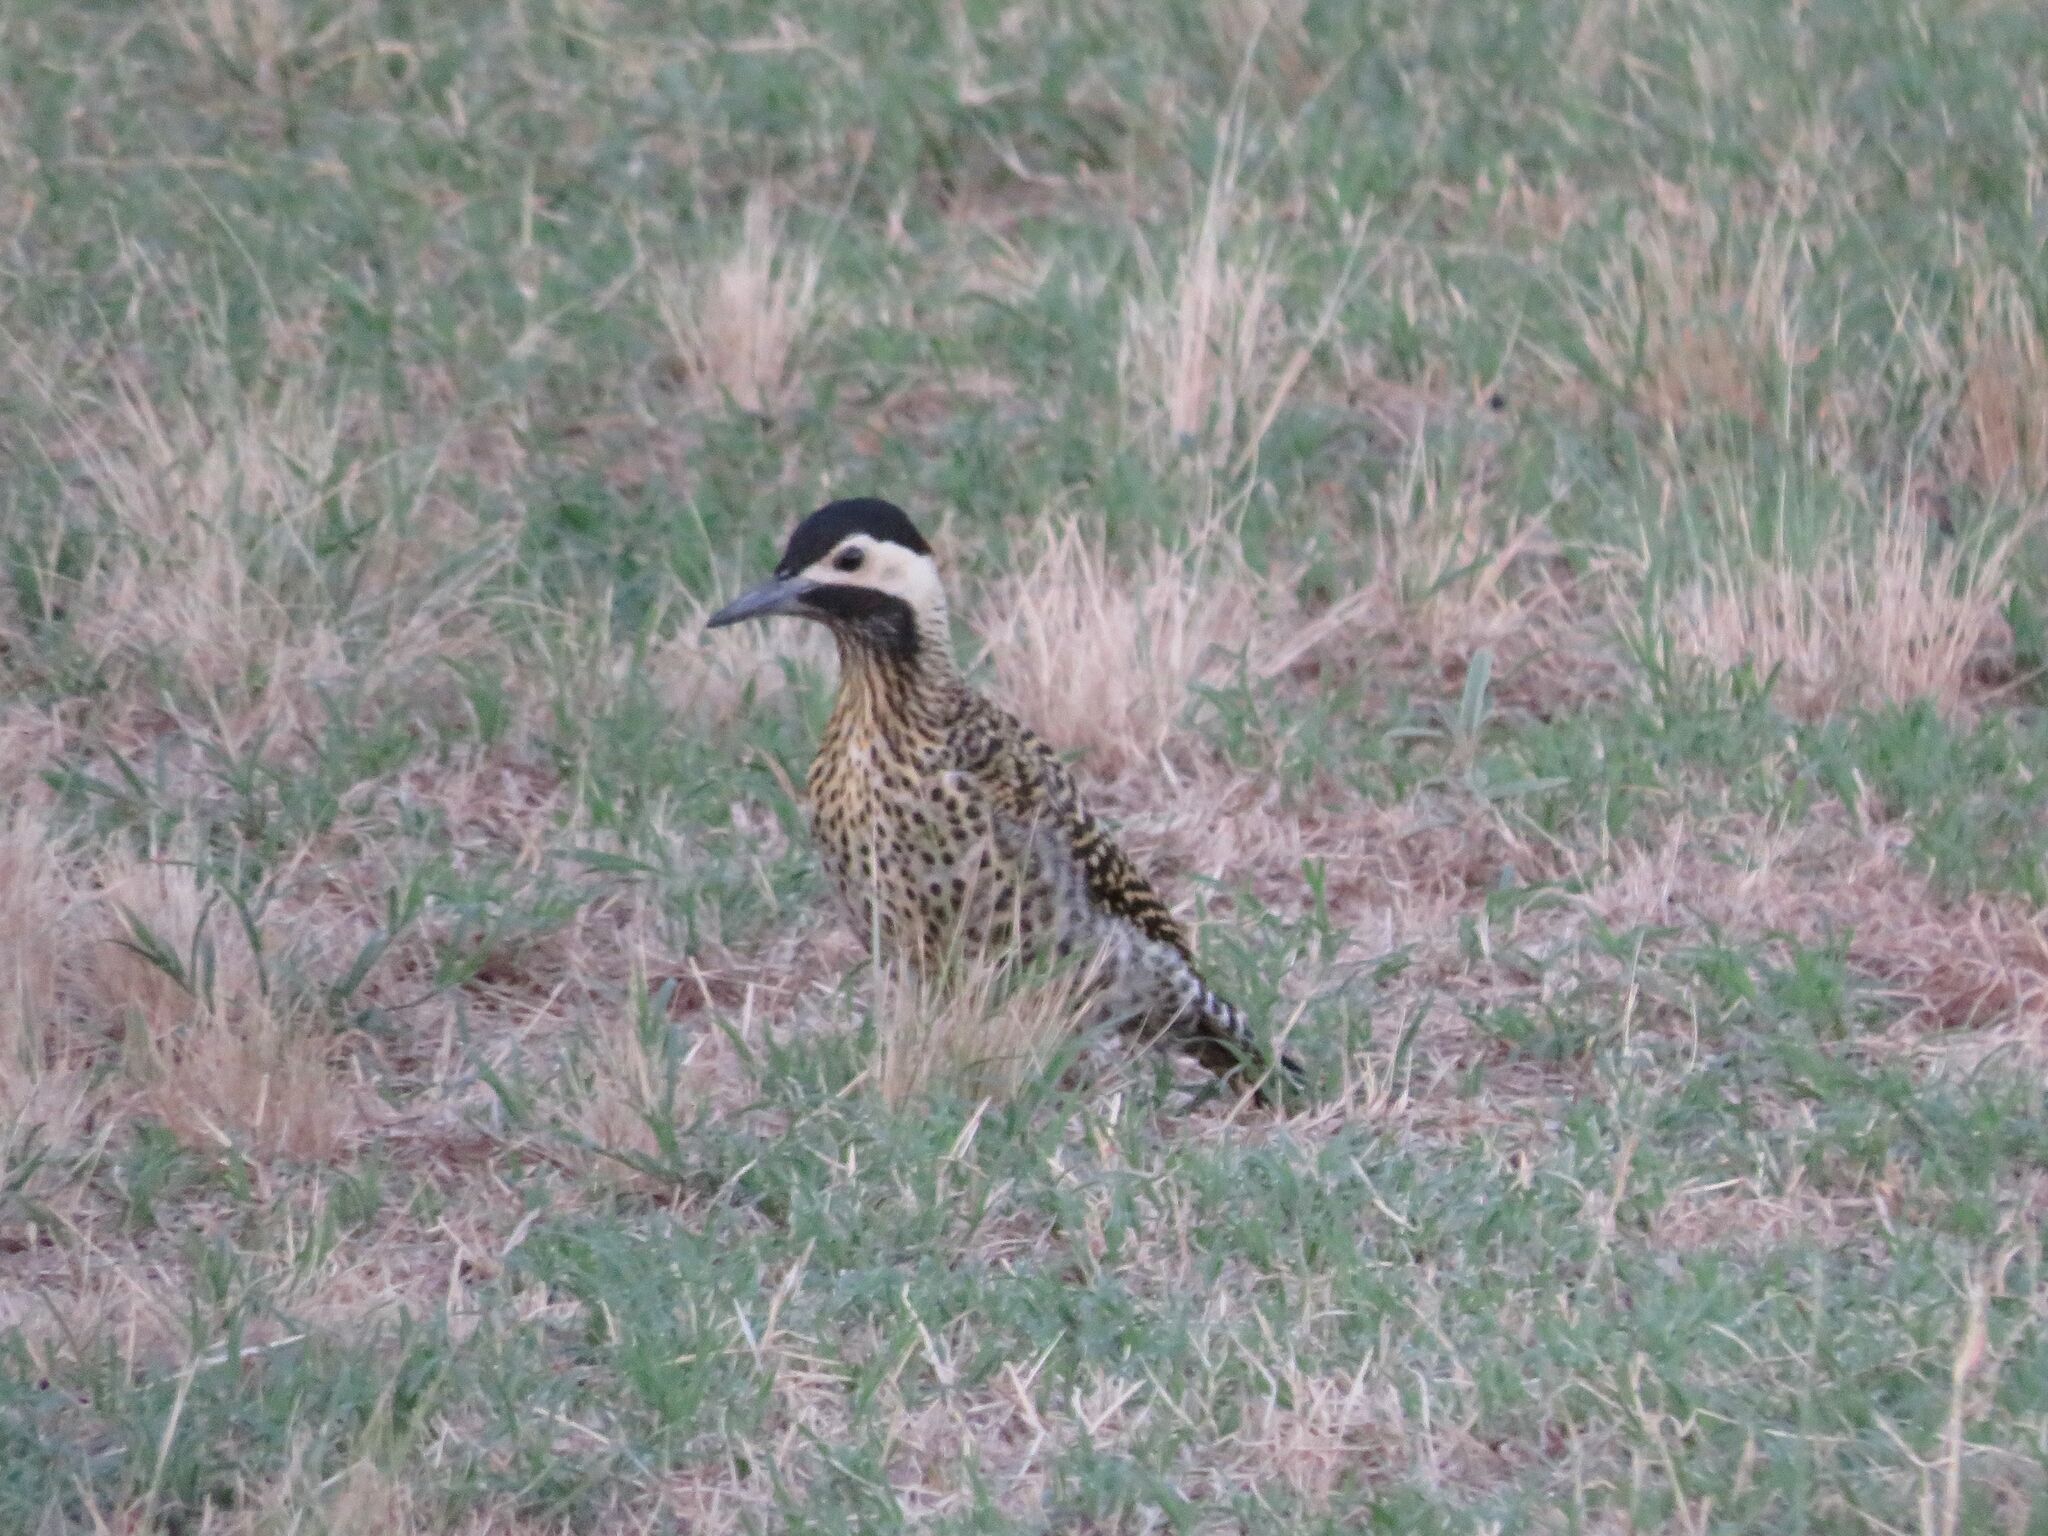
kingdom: Animalia
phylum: Chordata
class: Aves
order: Piciformes
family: Picidae
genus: Colaptes
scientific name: Colaptes melanochloros
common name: Green-barred woodpecker
